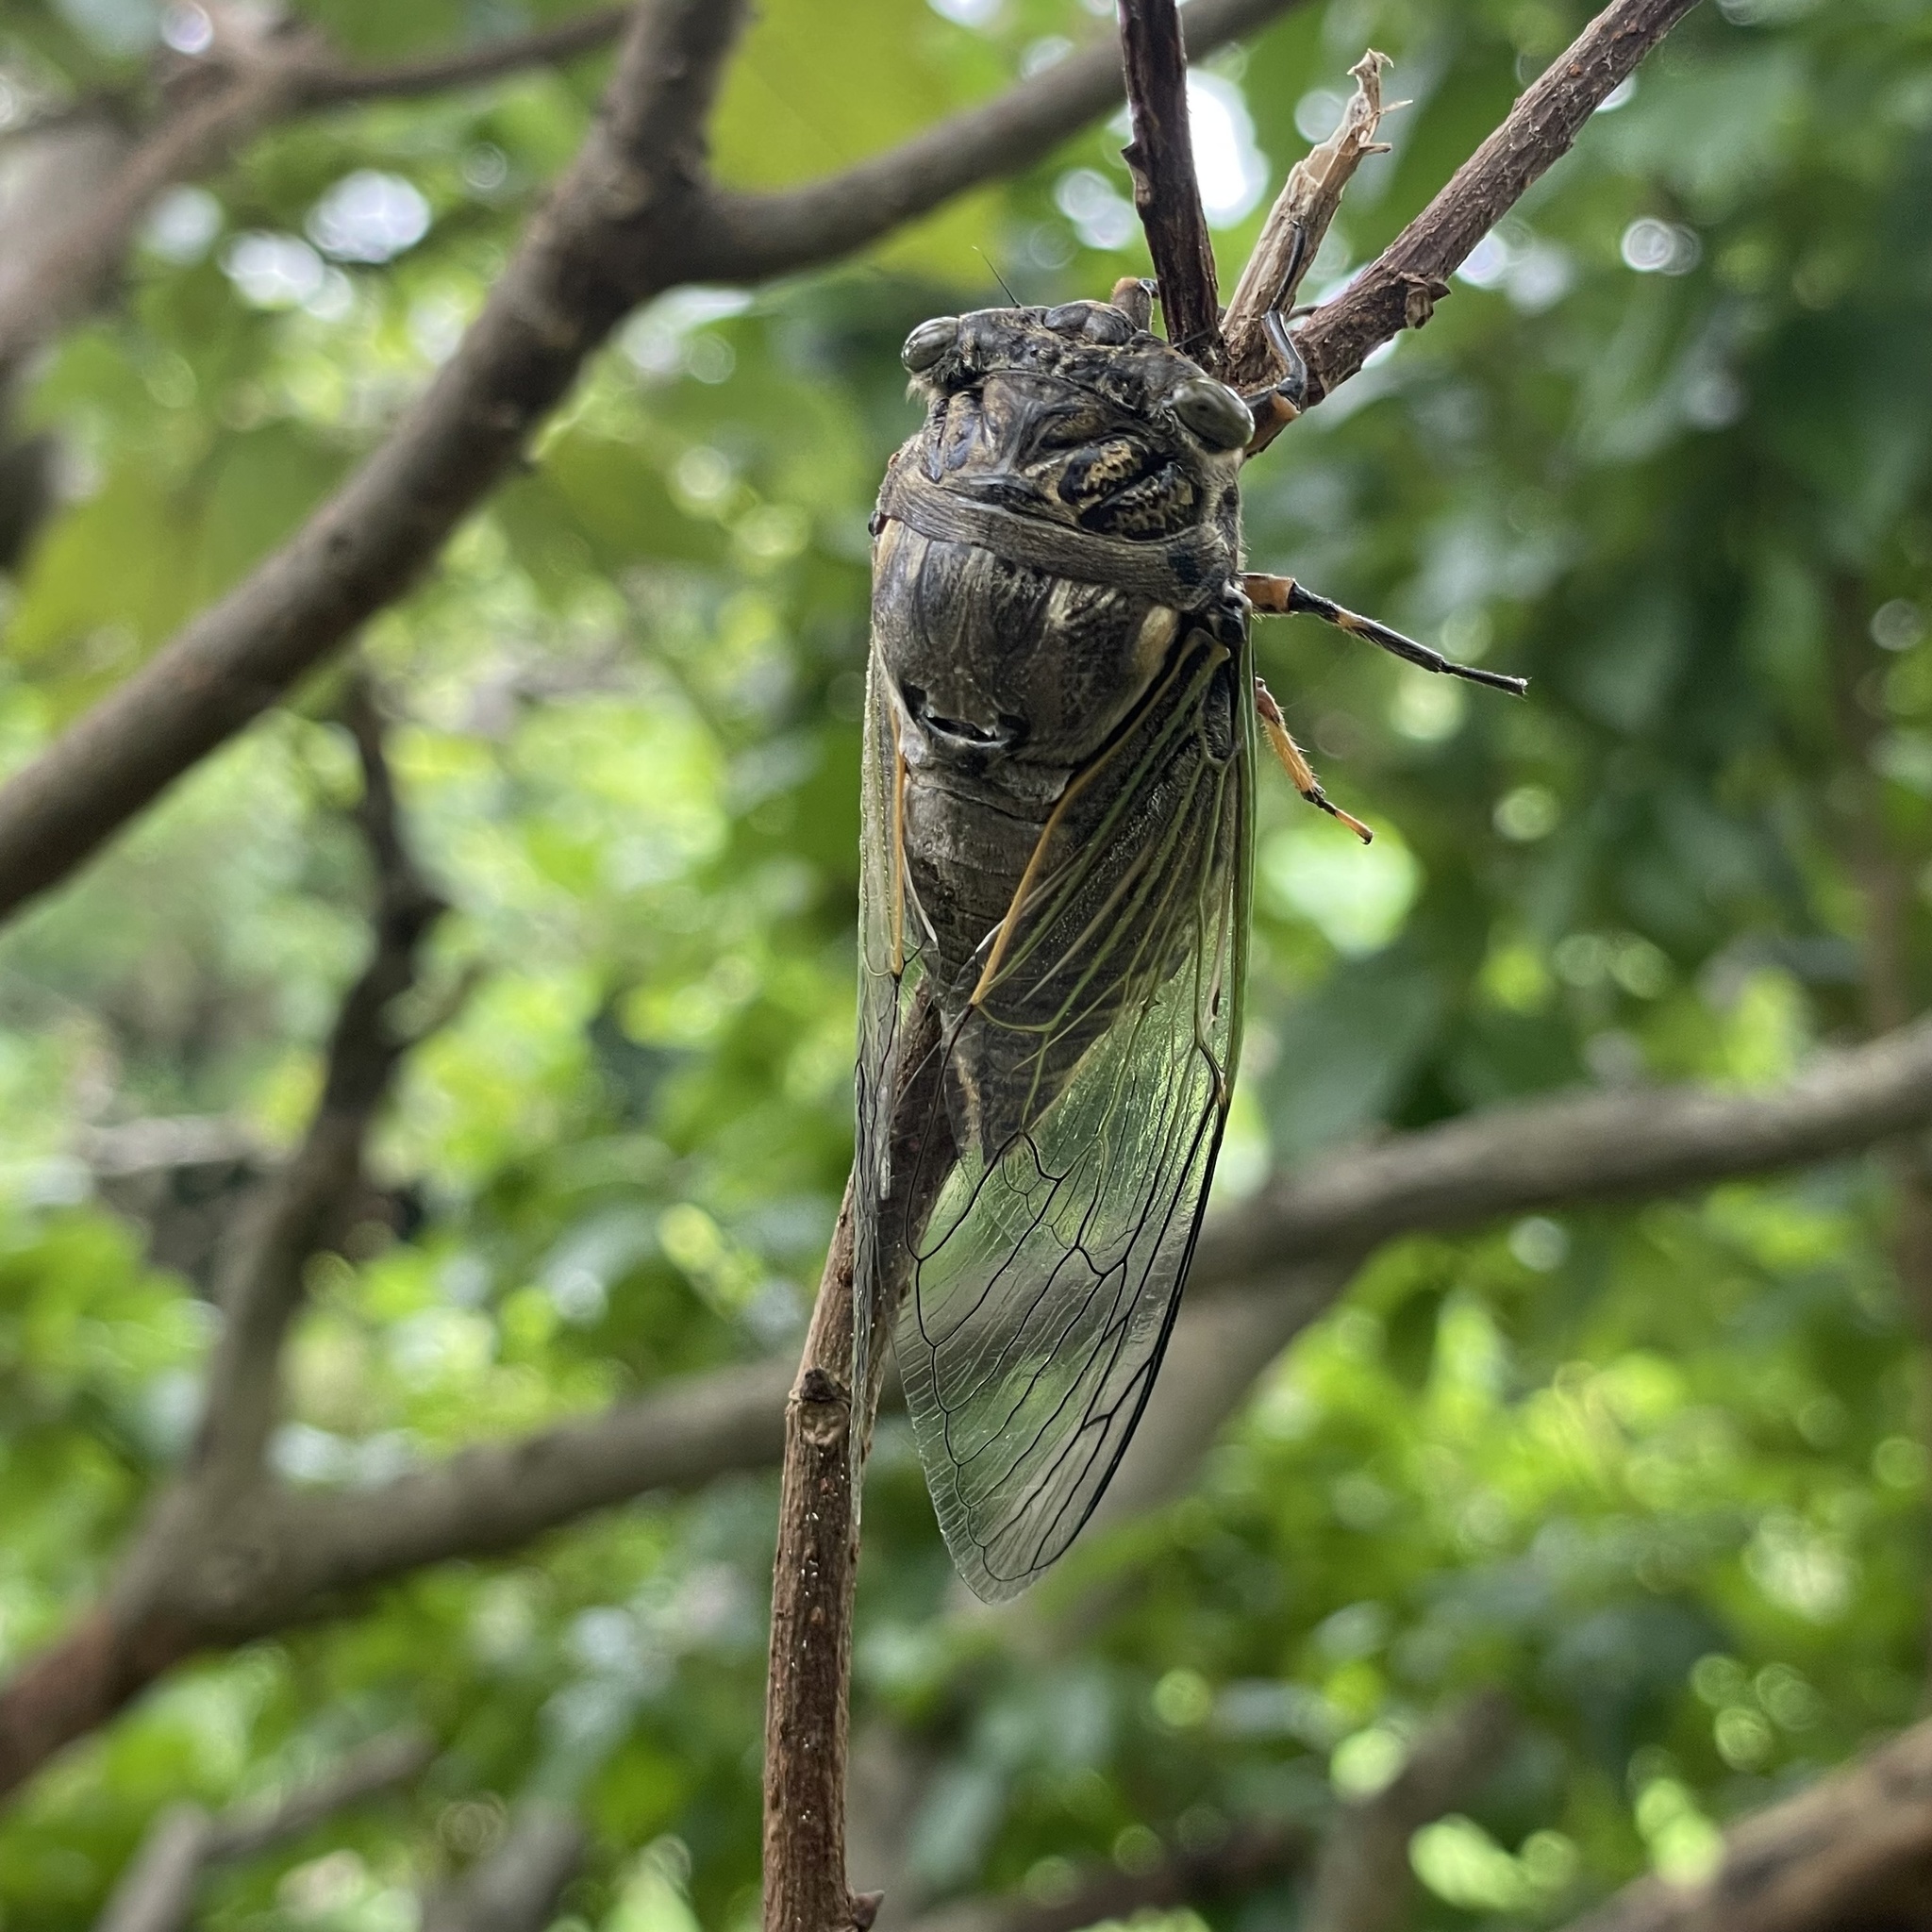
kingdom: Animalia
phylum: Arthropoda
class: Insecta
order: Hemiptera
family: Cicadidae
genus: Cryptotympana
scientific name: Cryptotympana facialis
